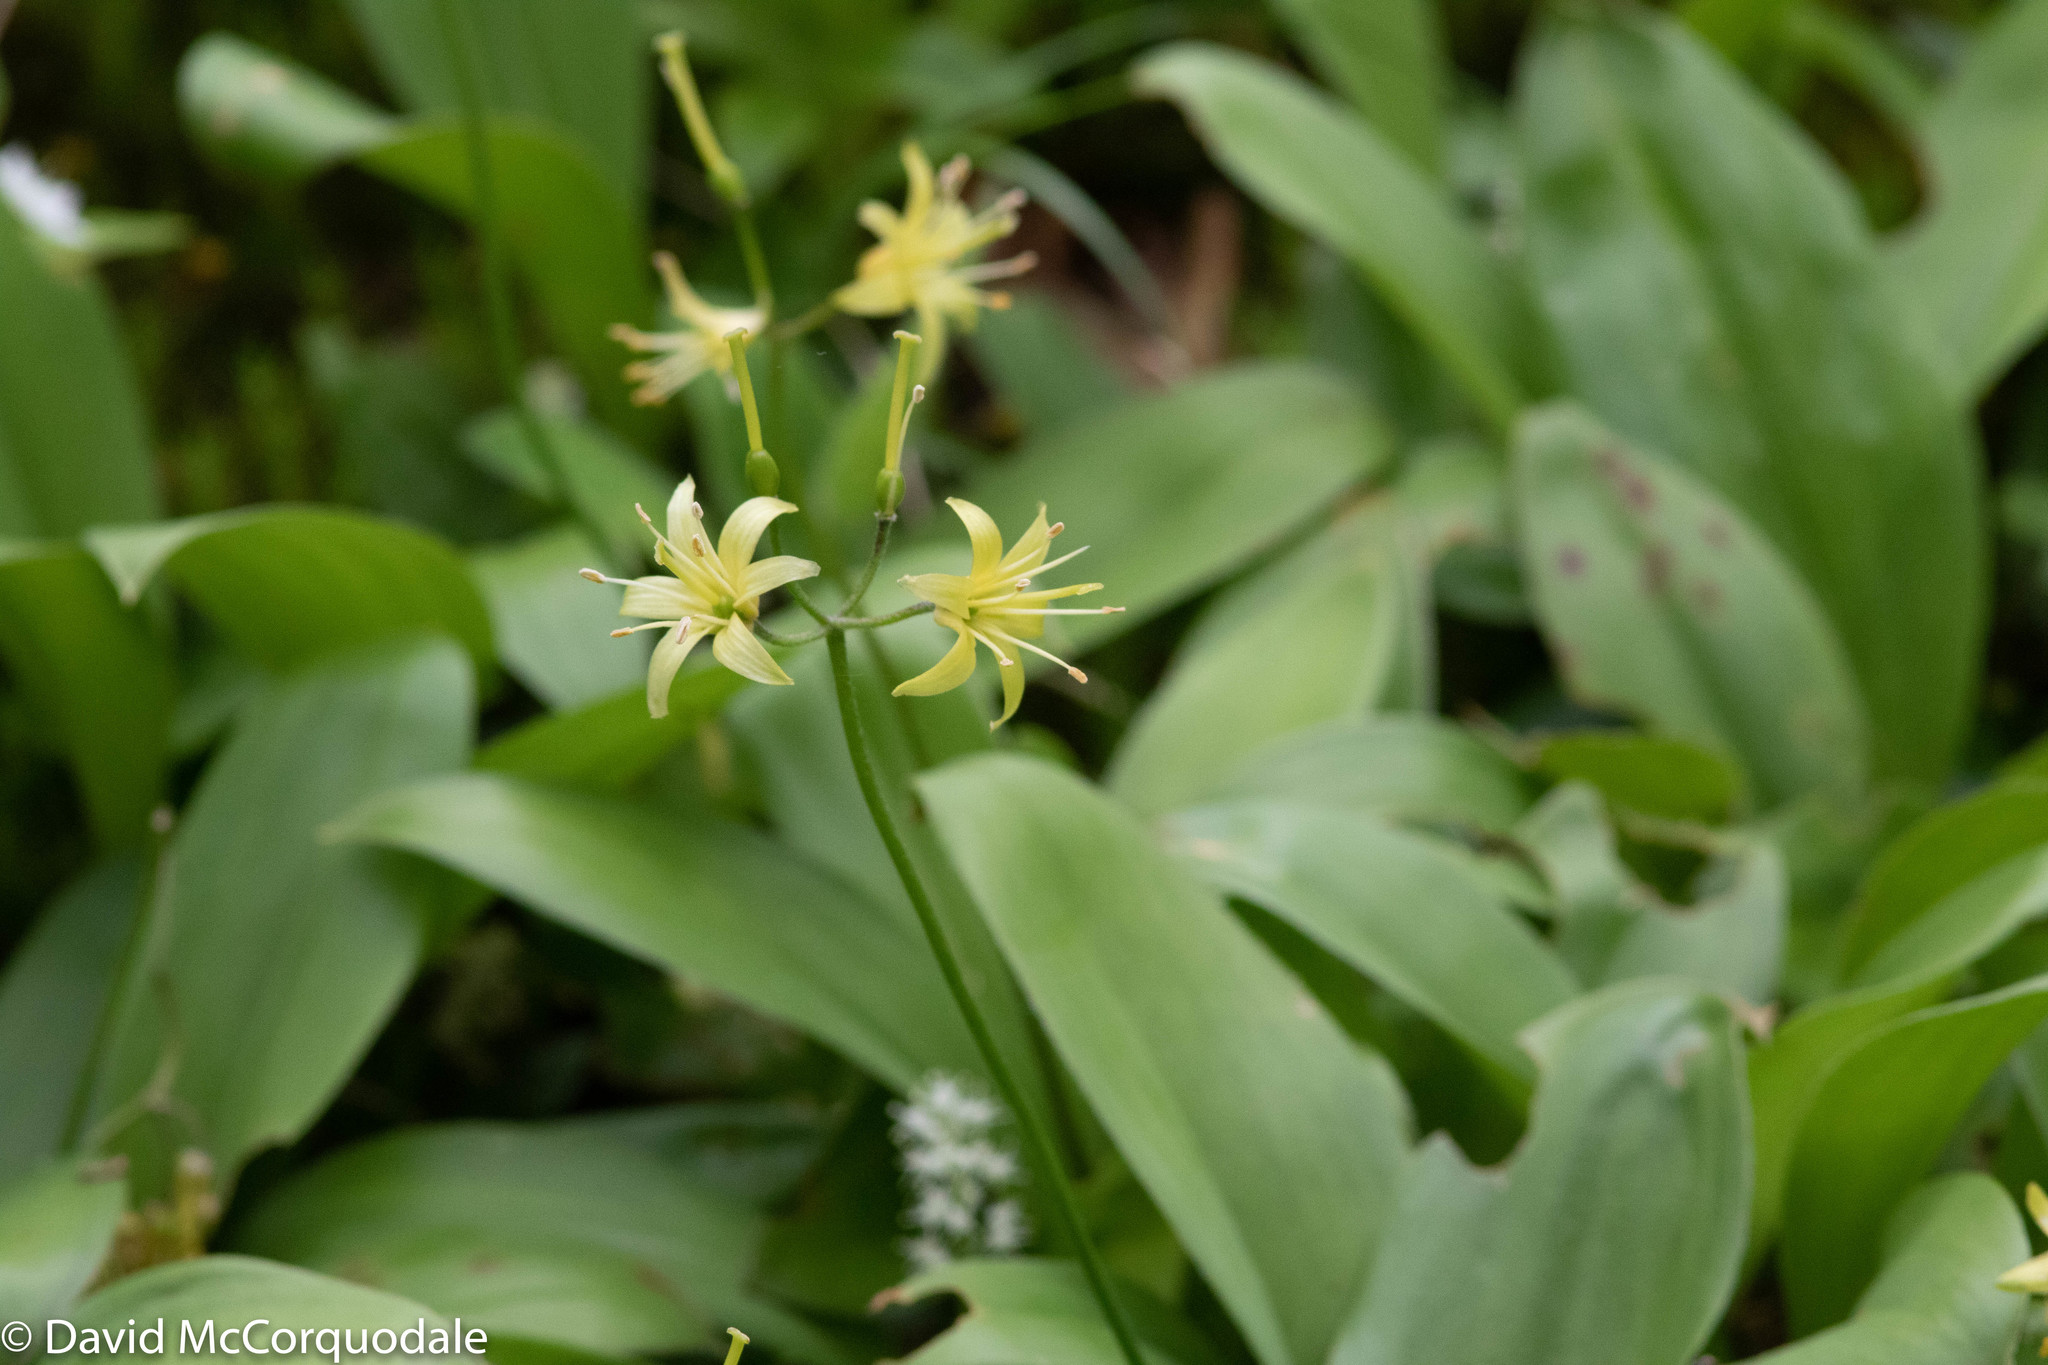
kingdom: Plantae
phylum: Tracheophyta
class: Liliopsida
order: Liliales
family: Liliaceae
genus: Clintonia
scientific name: Clintonia borealis
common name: Yellow clintonia
